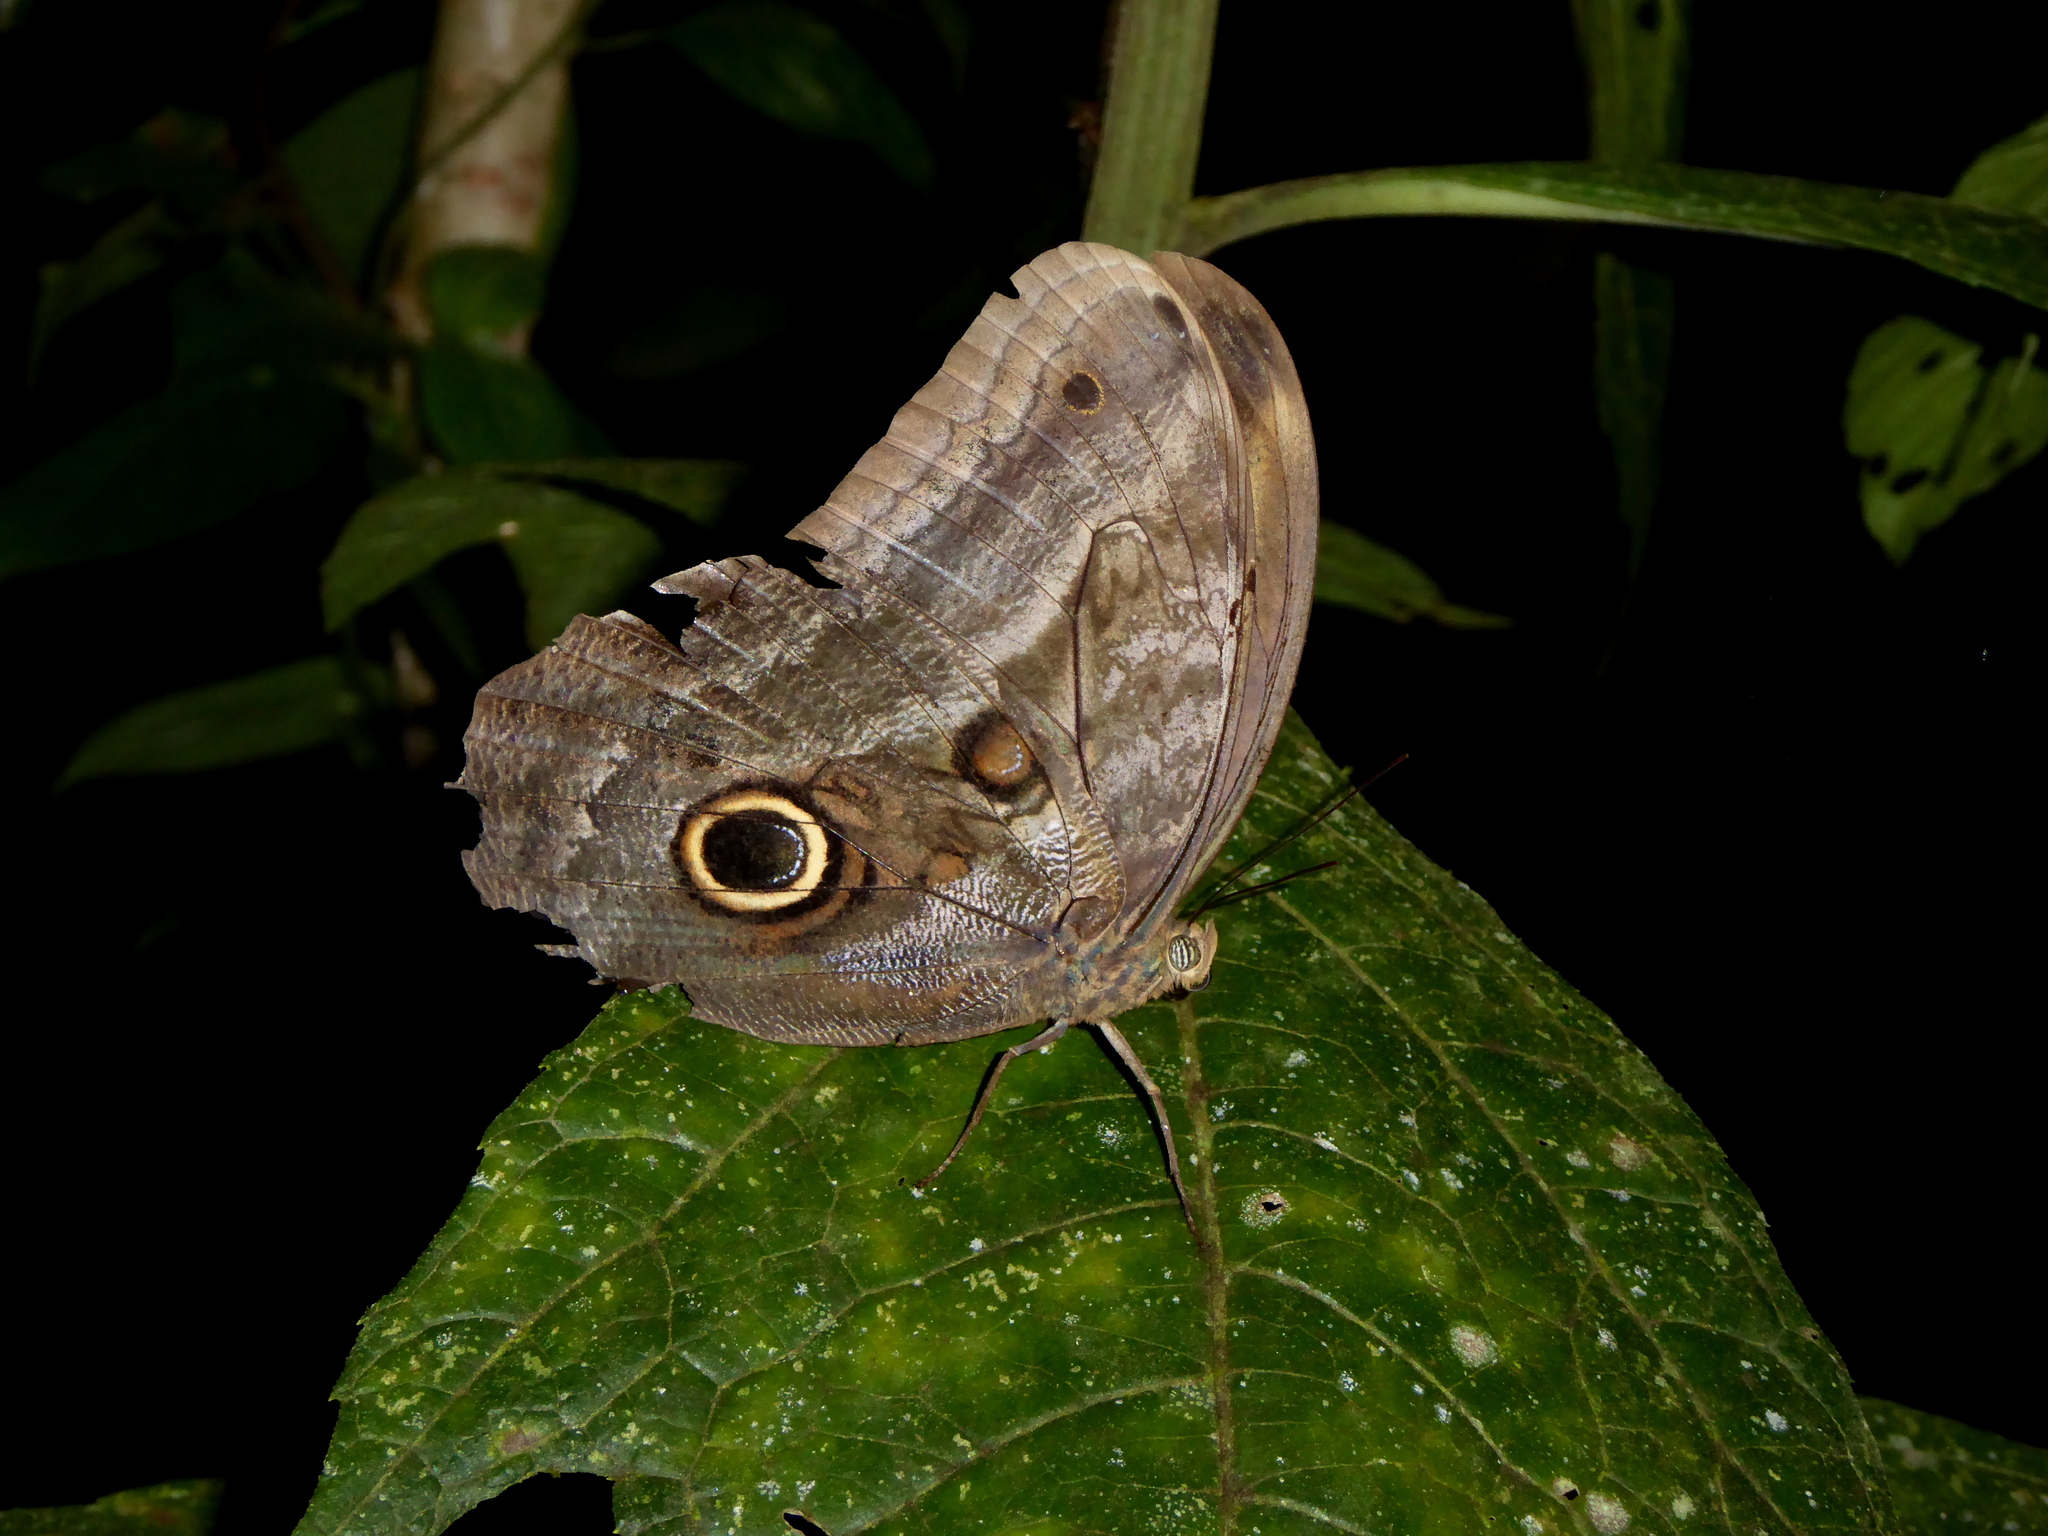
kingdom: Animalia
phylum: Arthropoda
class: Insecta
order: Lepidoptera
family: Nymphalidae
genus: Caligo
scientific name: Caligo oedipus
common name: Fruhstorfer's owl-butterfly
